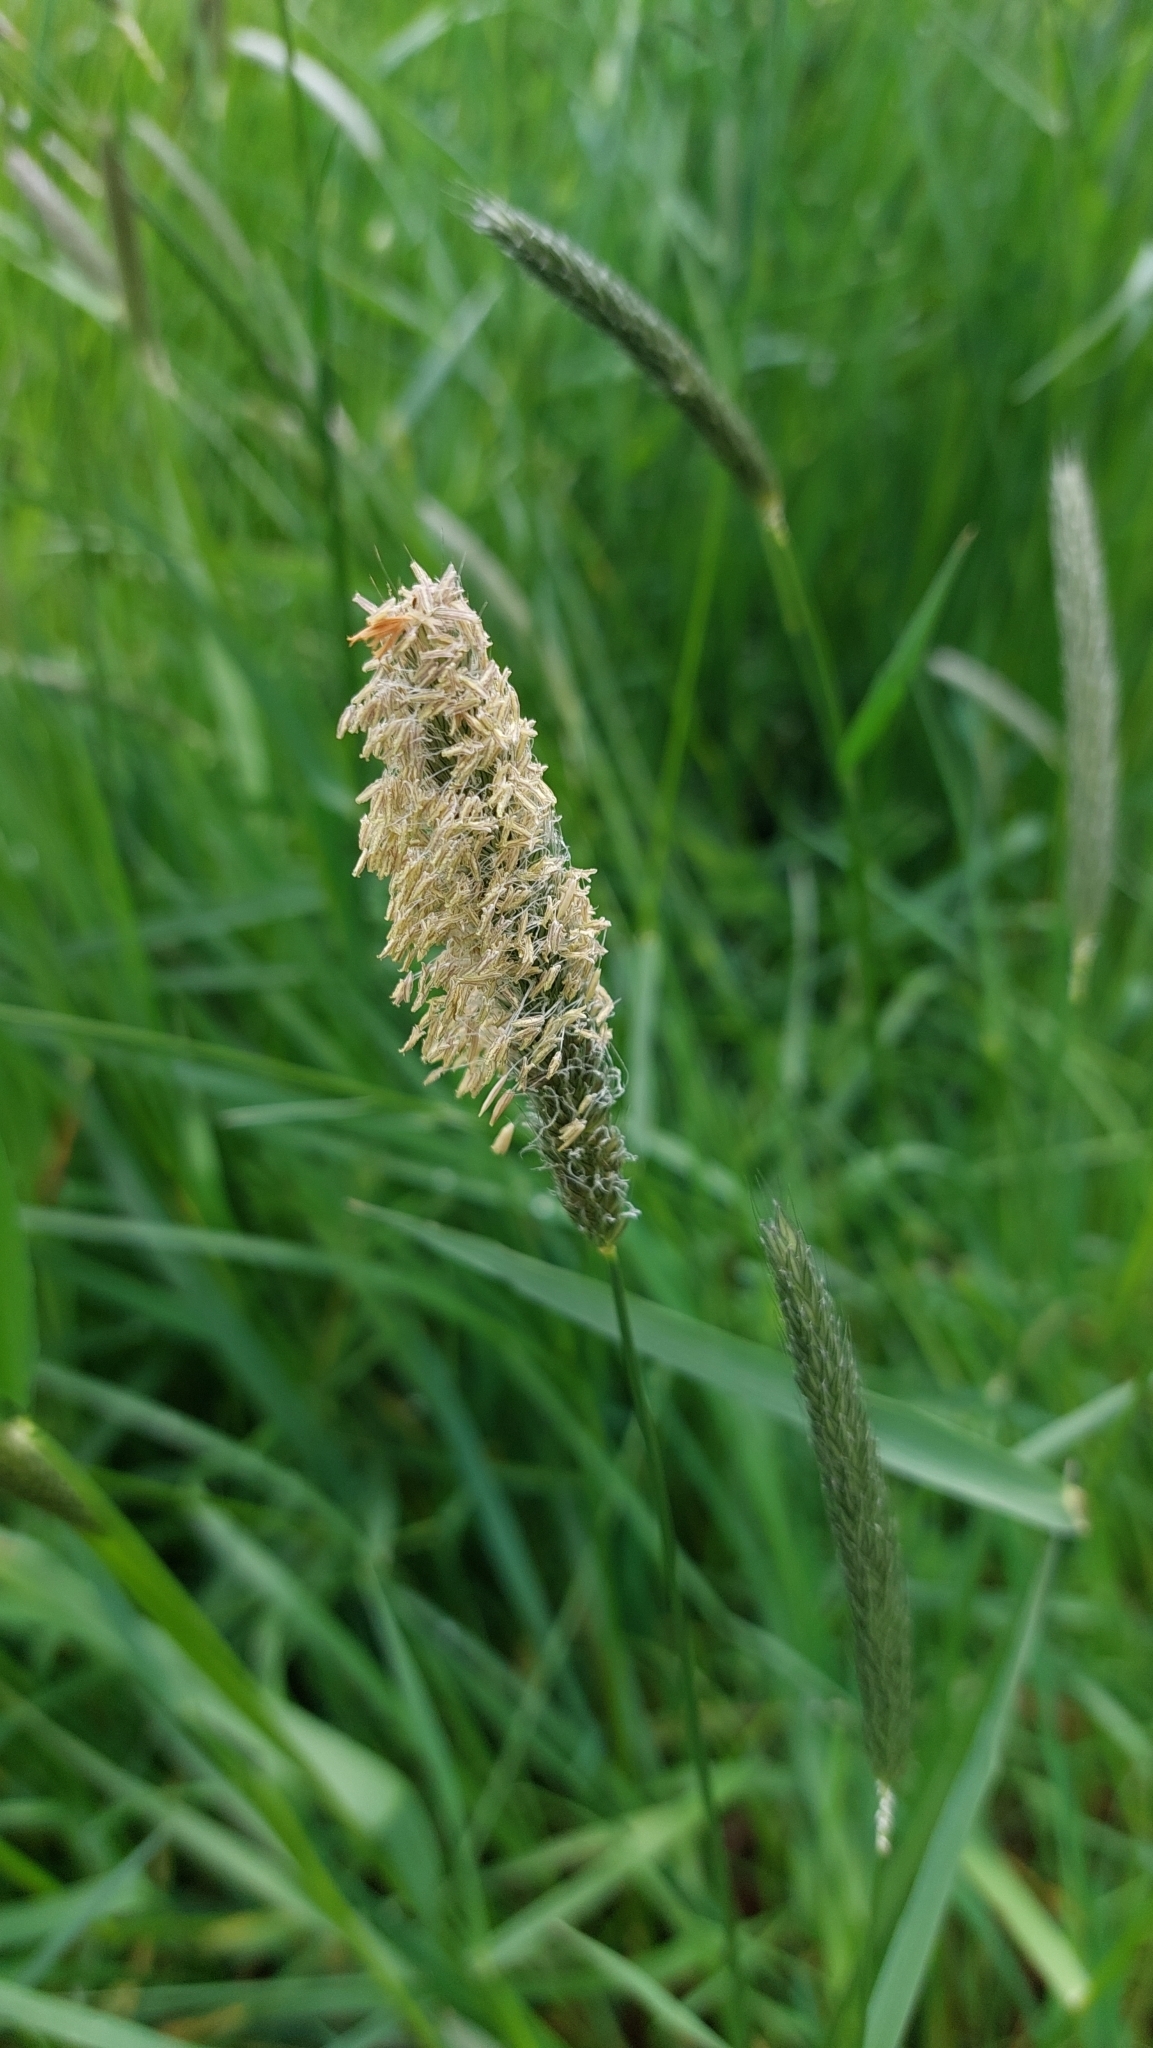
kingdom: Plantae
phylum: Tracheophyta
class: Liliopsida
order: Poales
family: Poaceae
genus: Alopecurus
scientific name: Alopecurus pratensis
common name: Meadow foxtail
